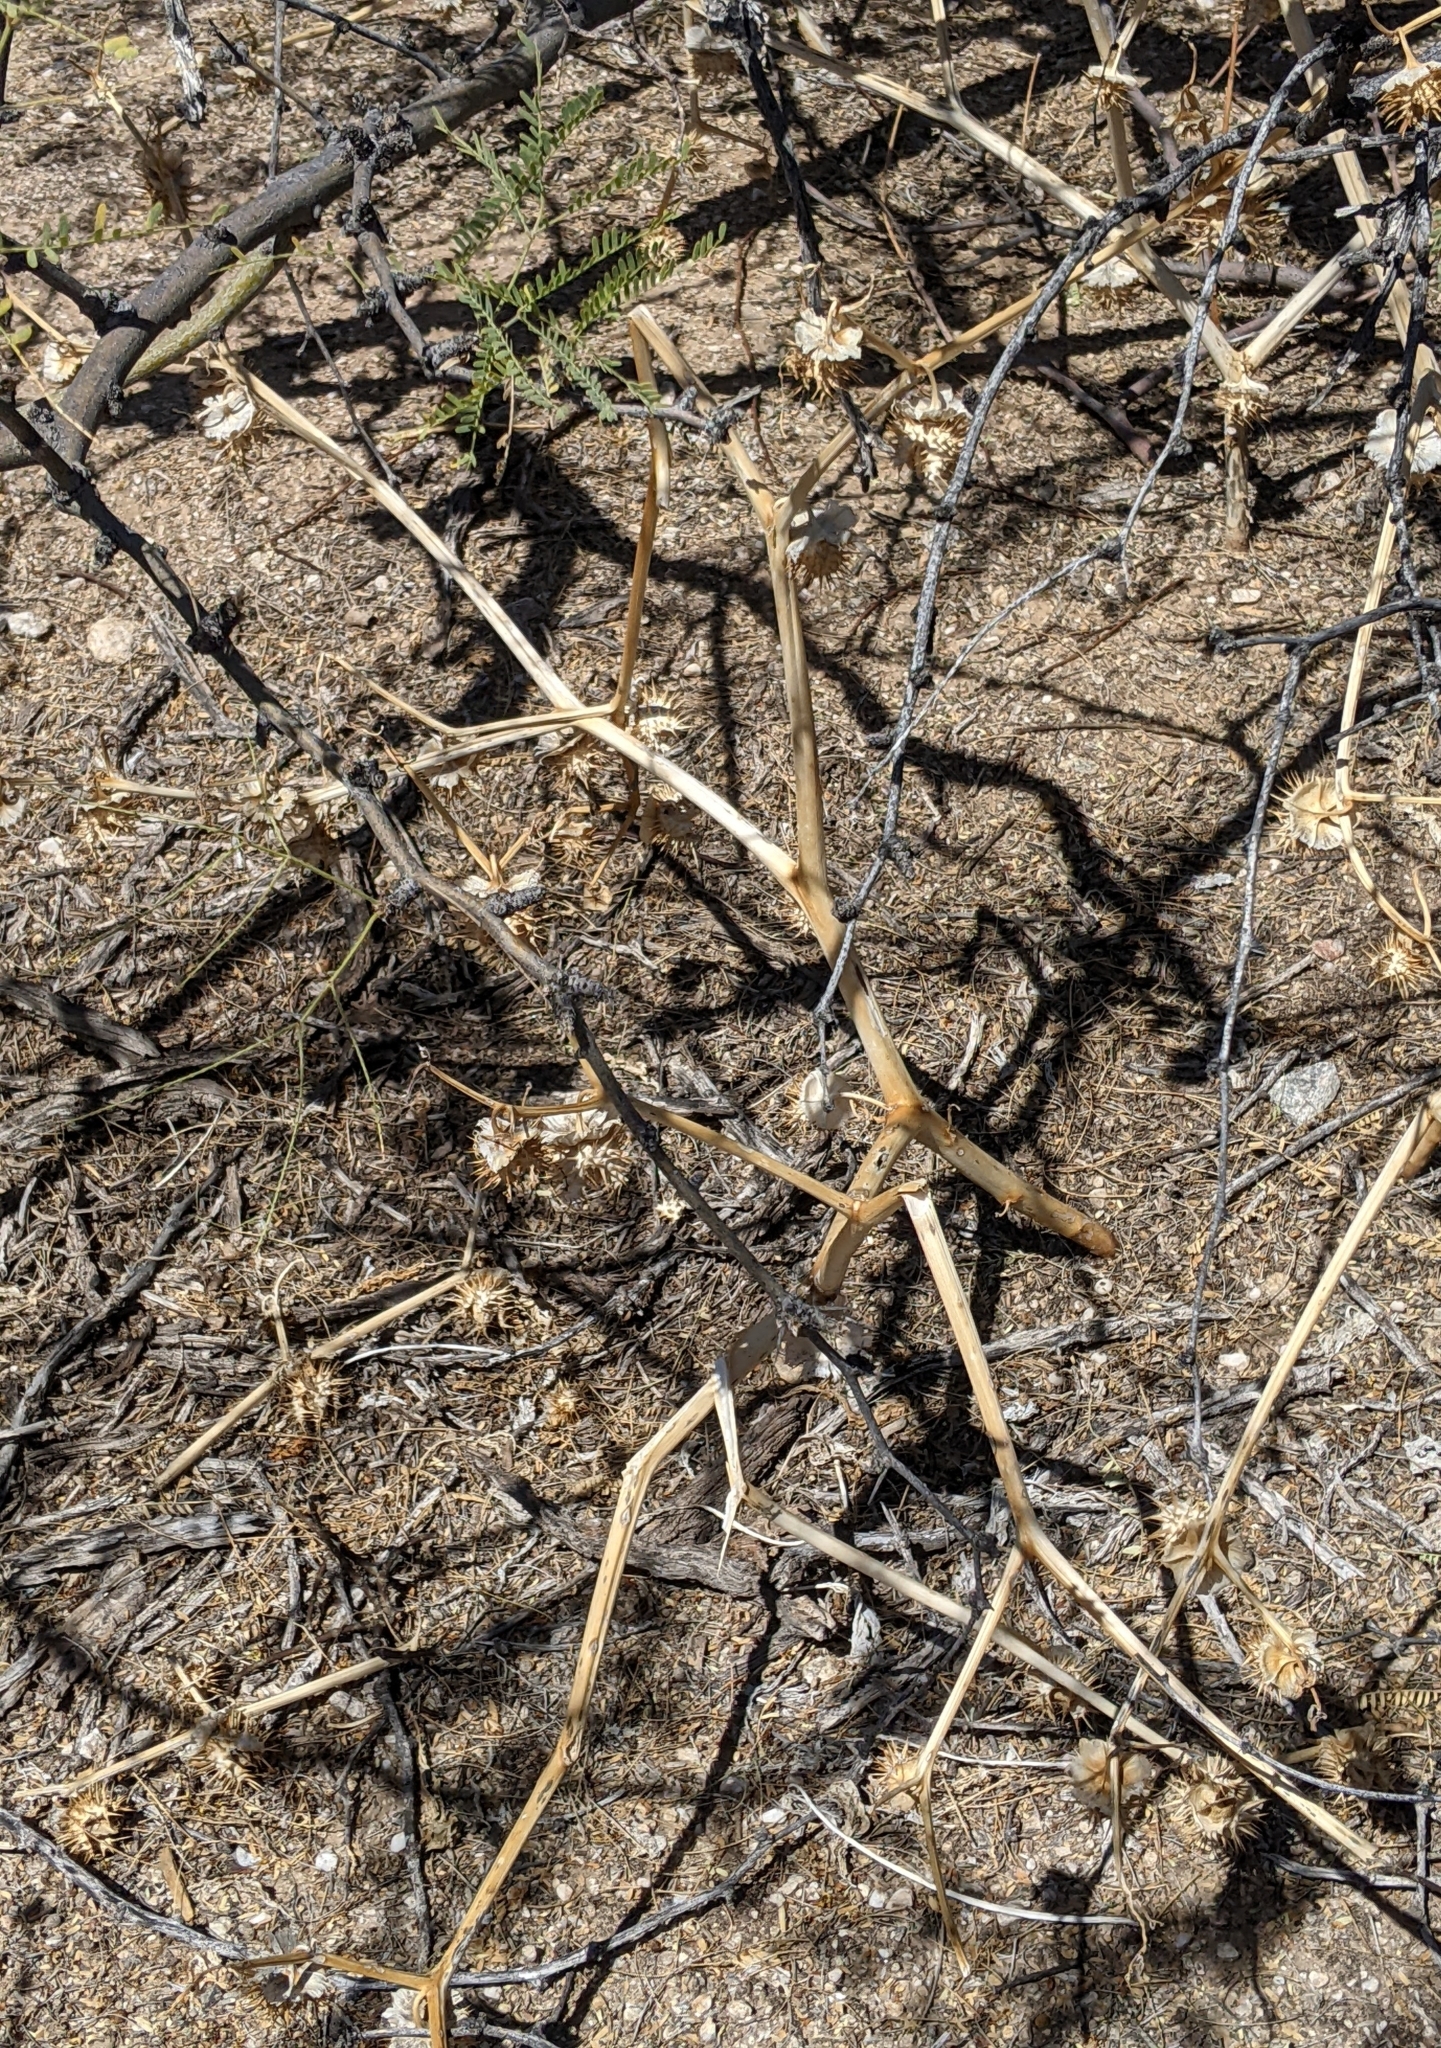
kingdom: Plantae
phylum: Tracheophyta
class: Magnoliopsida
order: Solanales
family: Solanaceae
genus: Datura
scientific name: Datura discolor
